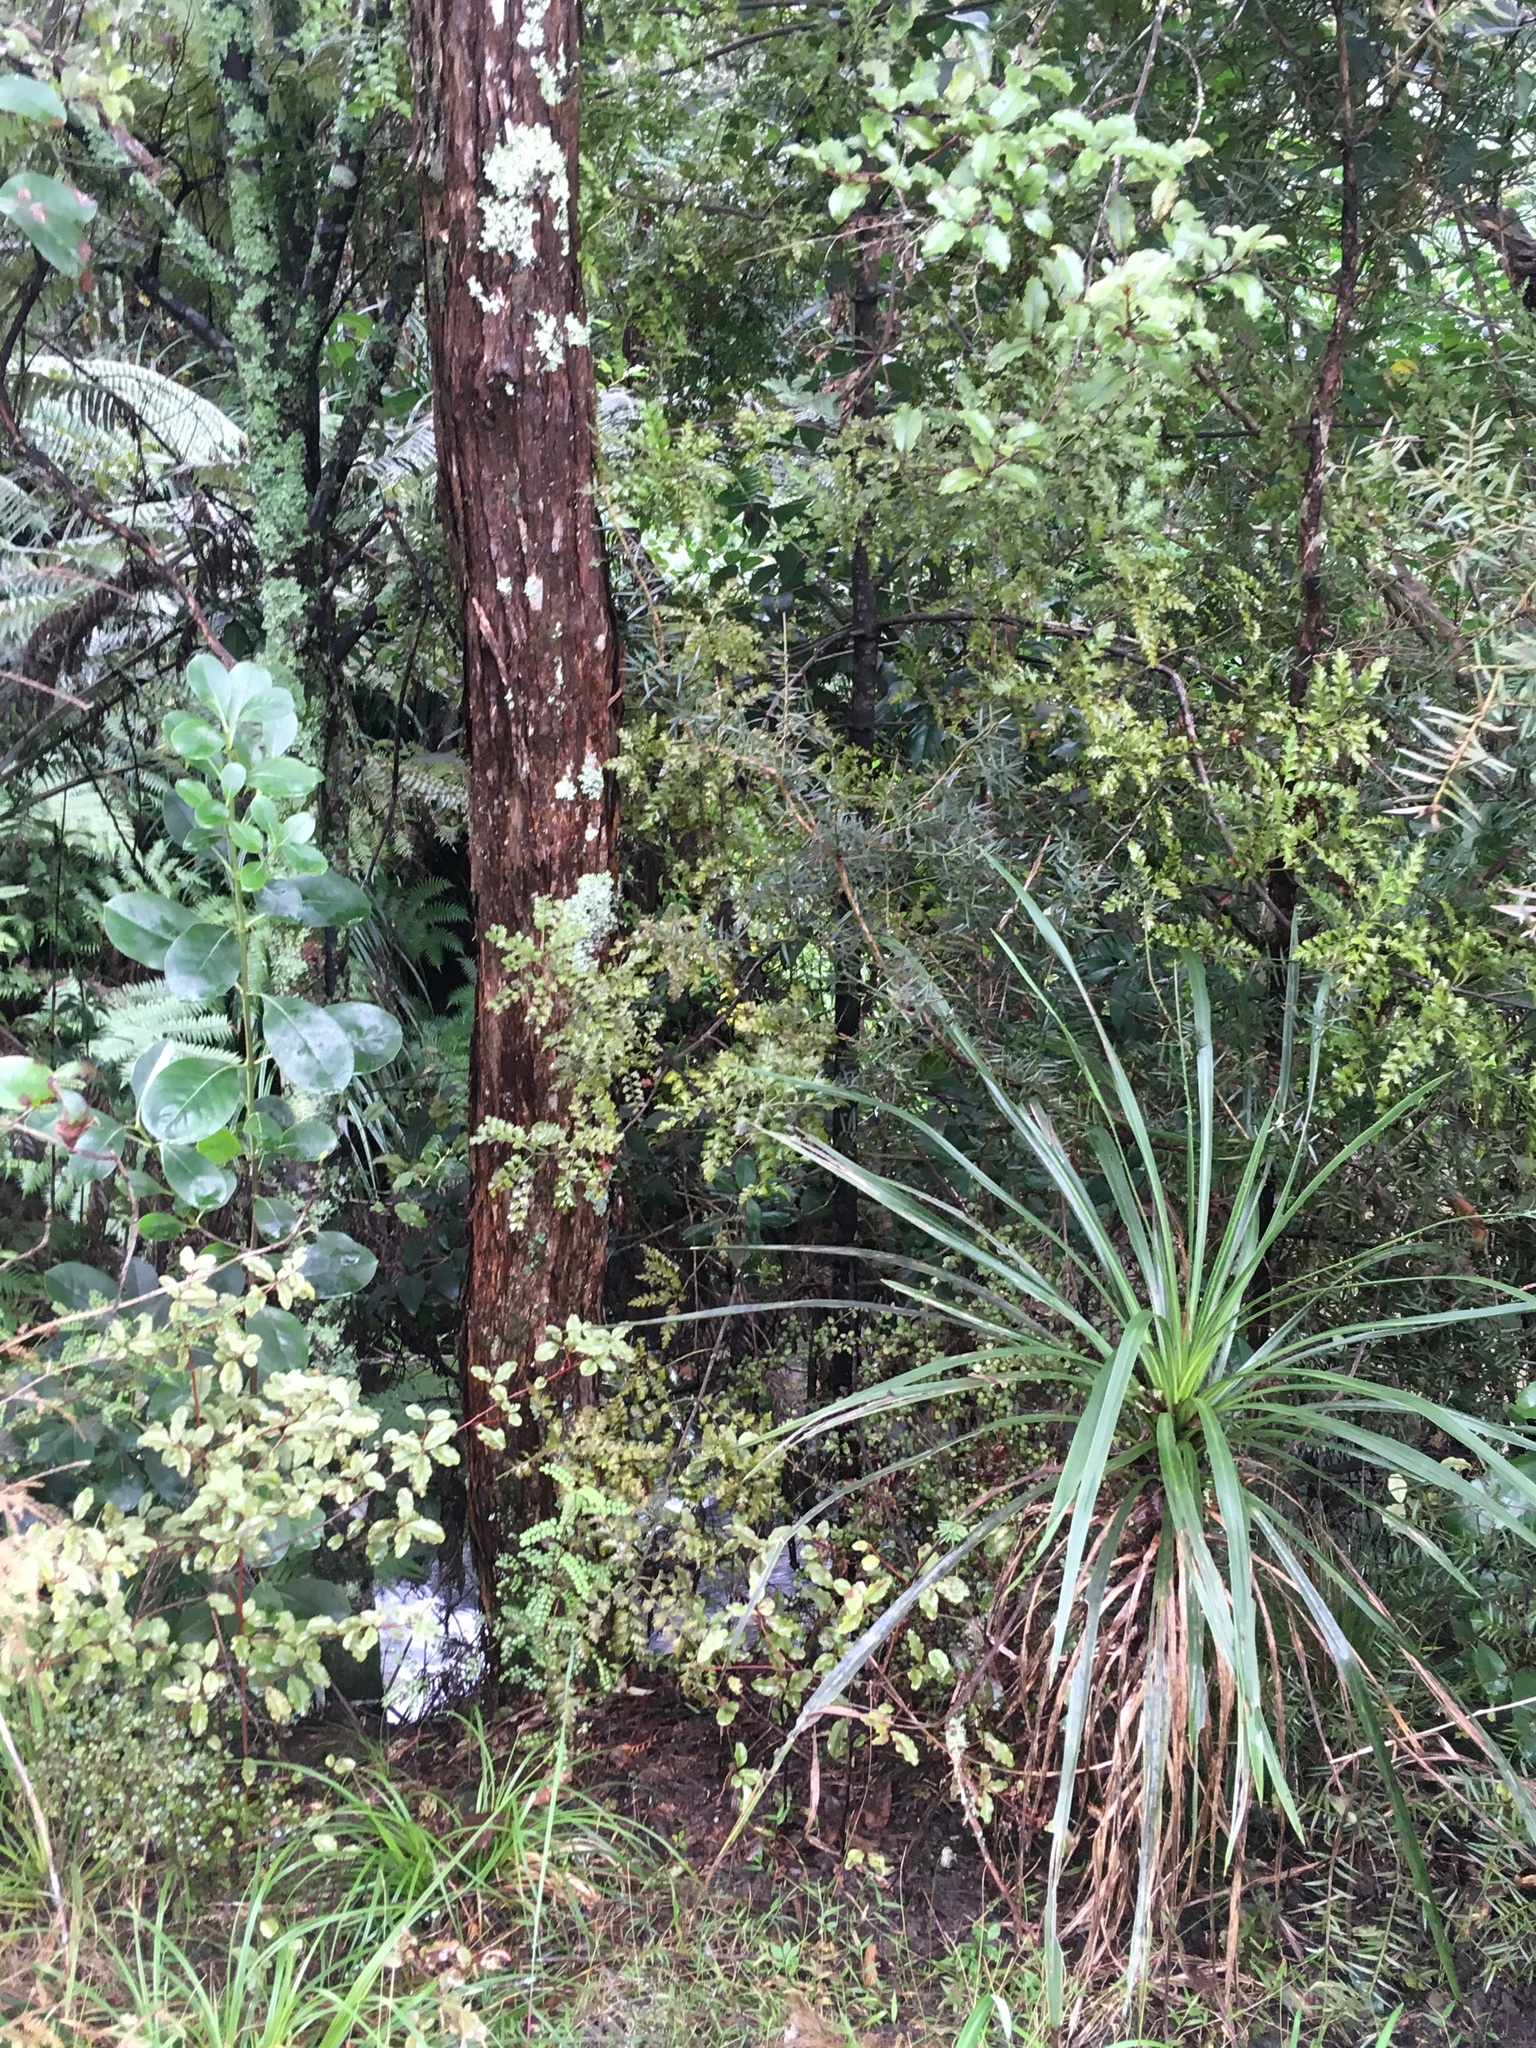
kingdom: Plantae
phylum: Tracheophyta
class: Pinopsida
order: Pinales
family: Phyllocladaceae
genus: Phyllocladus
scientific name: Phyllocladus trichomanoides
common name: Celery pine
